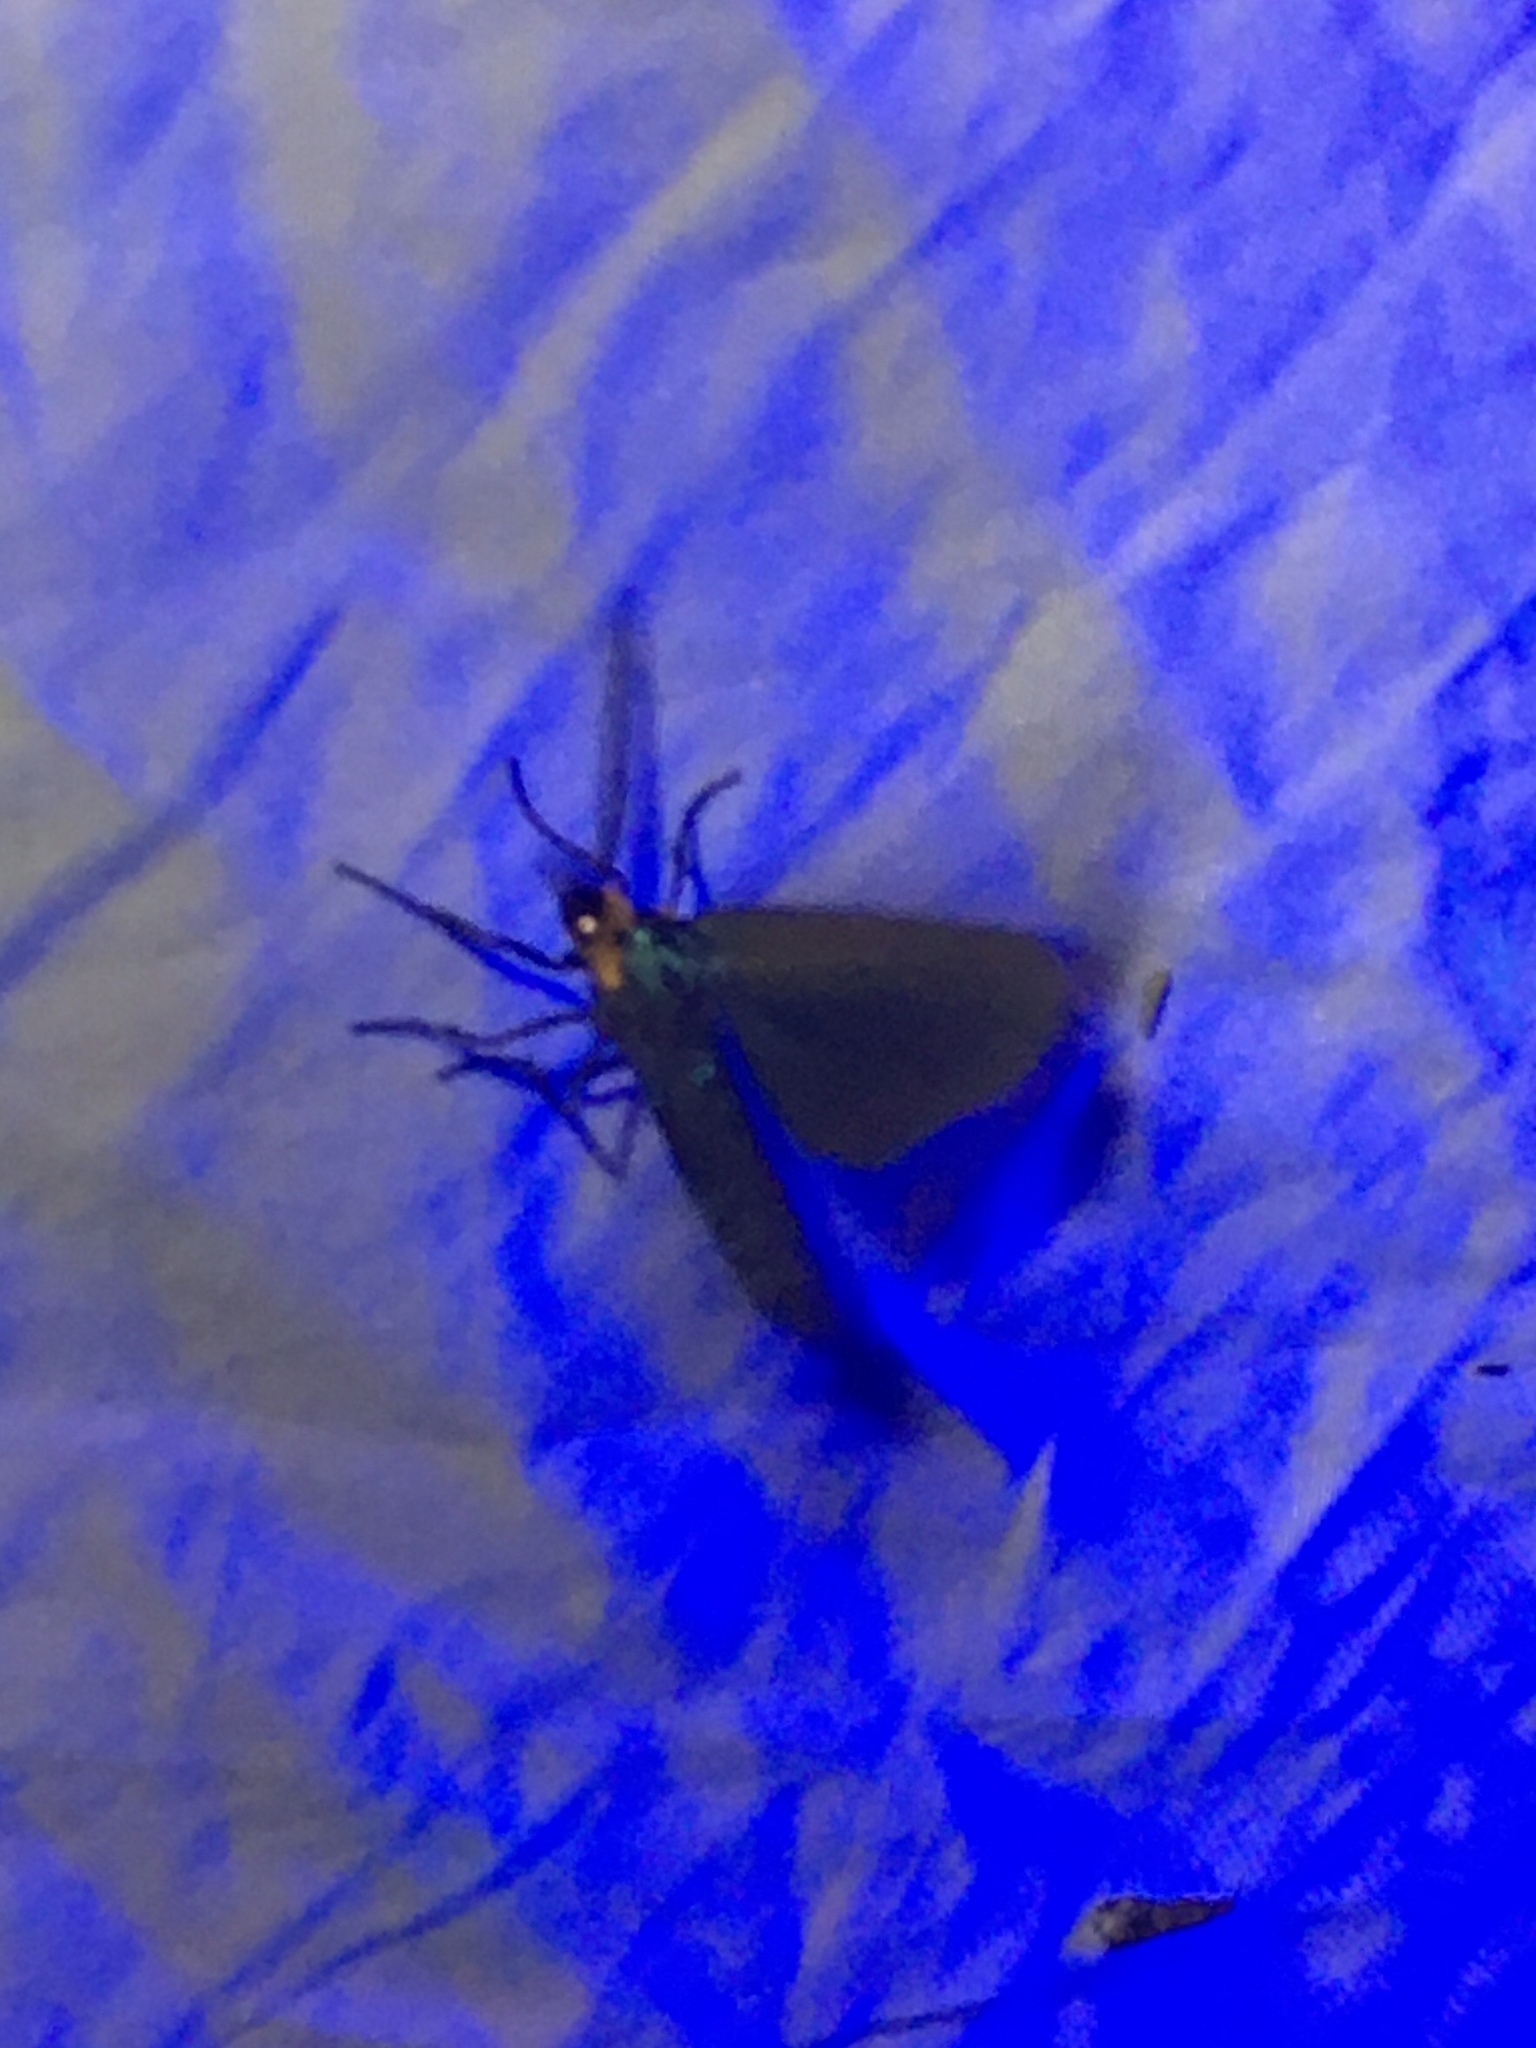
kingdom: Animalia
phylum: Arthropoda
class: Insecta
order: Lepidoptera
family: Erebidae
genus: Ctenucha
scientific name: Ctenucha virginica
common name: Virginia ctenucha moth
